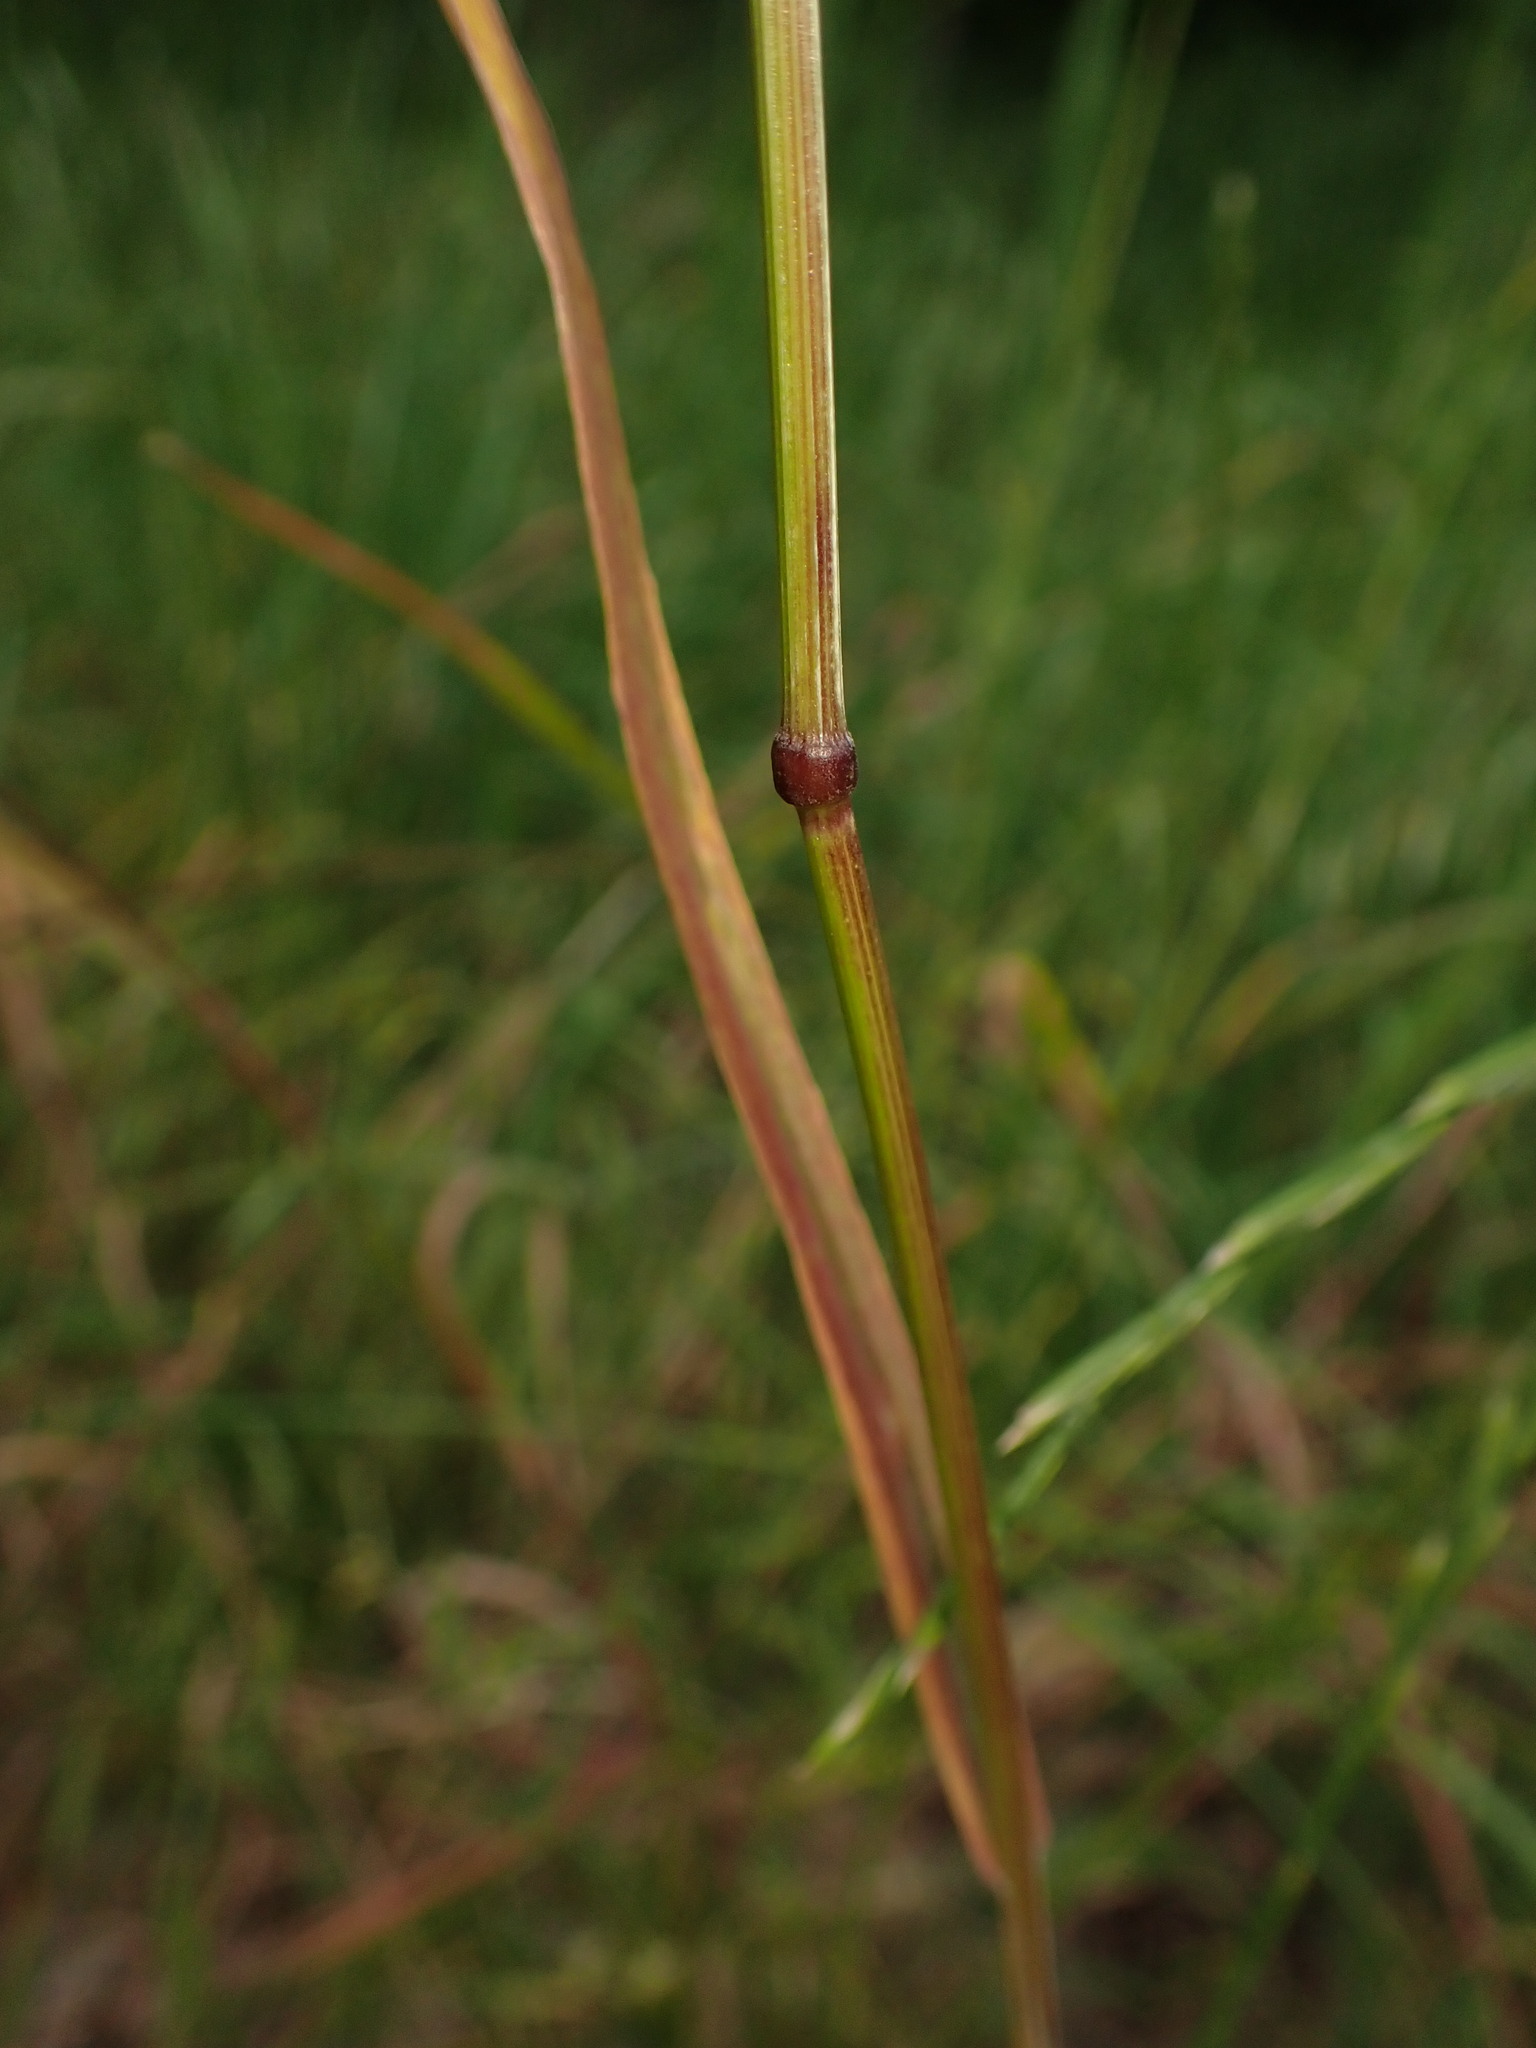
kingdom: Plantae
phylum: Tracheophyta
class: Liliopsida
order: Poales
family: Poaceae
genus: Bromus
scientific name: Bromus sterilis
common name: Poverty brome
